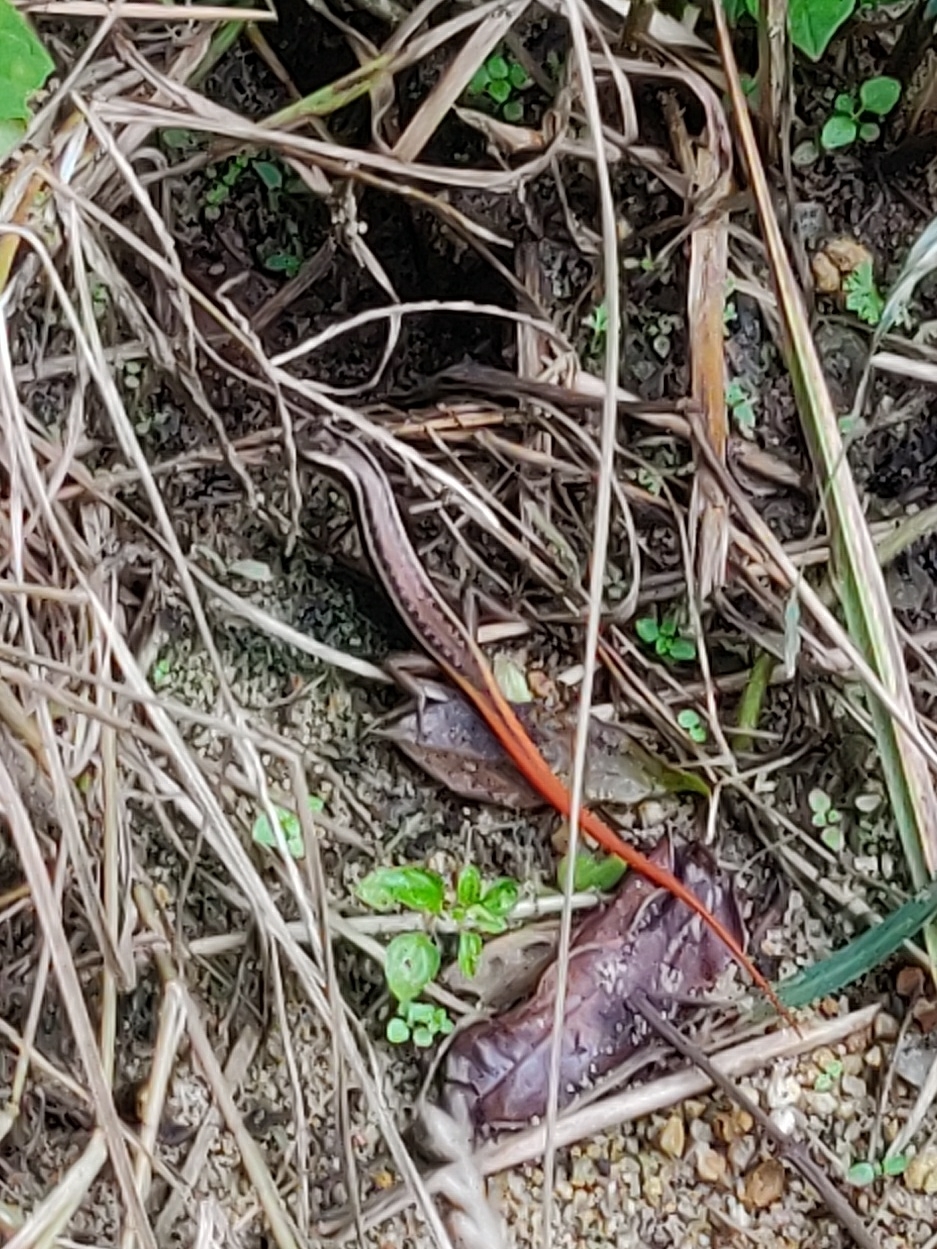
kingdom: Animalia
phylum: Chordata
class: Squamata
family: Scincidae
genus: Sphenomorphus
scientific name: Sphenomorphus dussumieri
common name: Dussumier's forest skink
